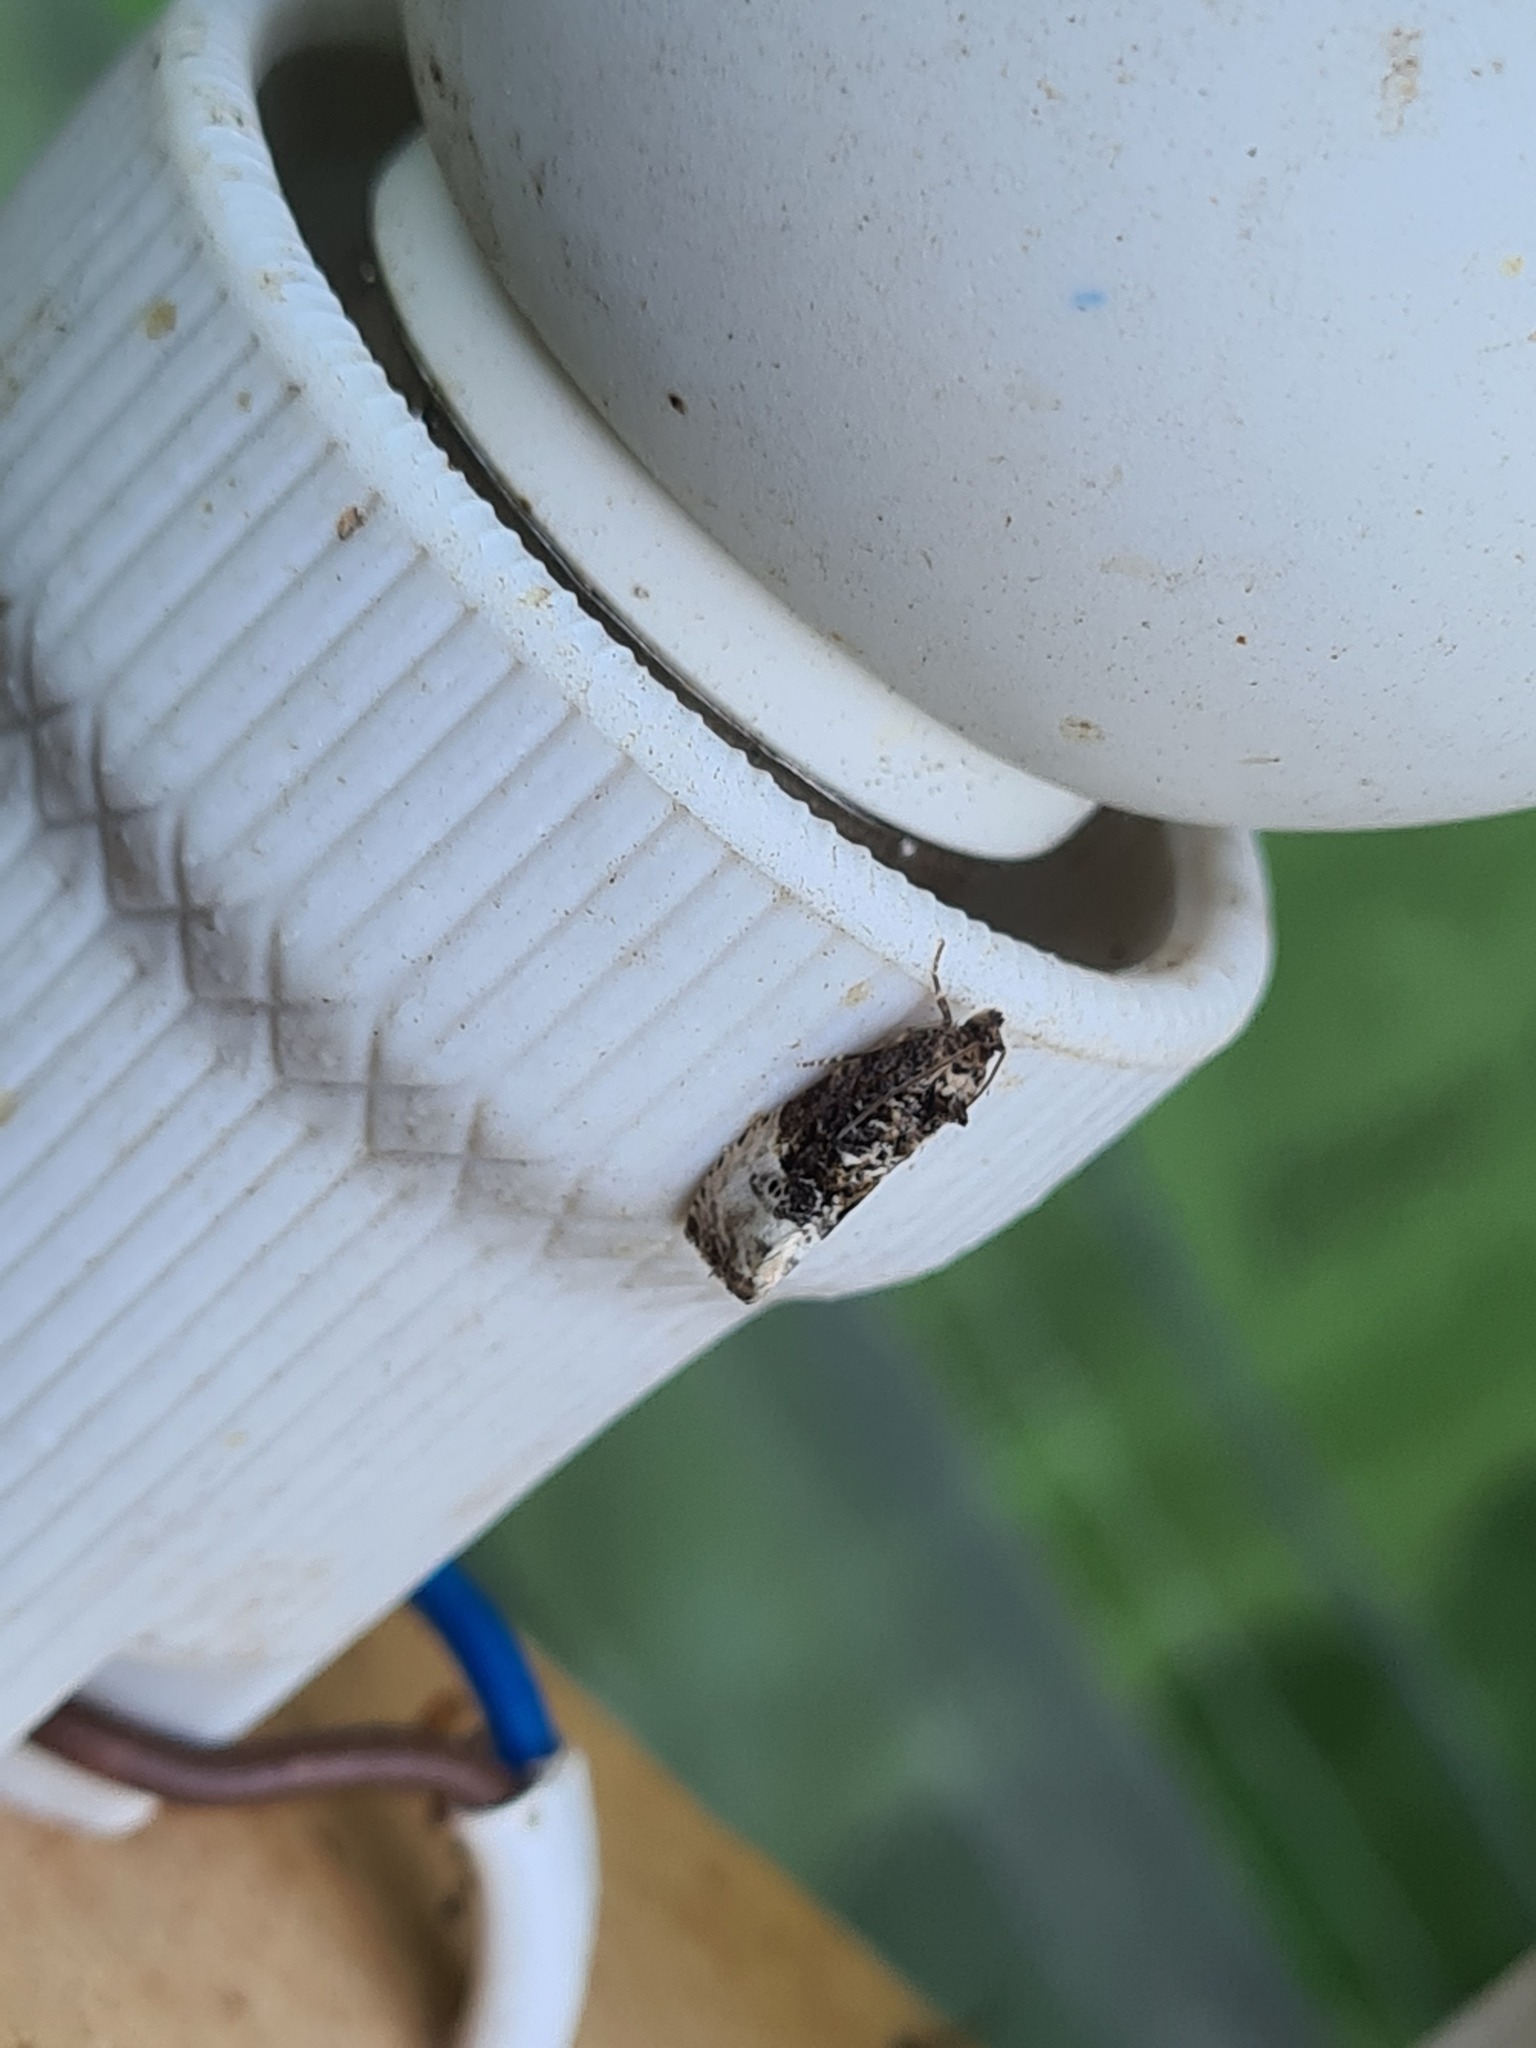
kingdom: Animalia
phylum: Arthropoda
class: Insecta
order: Lepidoptera
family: Tortricidae
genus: Hedya
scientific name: Hedya nubiferana
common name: Marbled orchard tortrix
